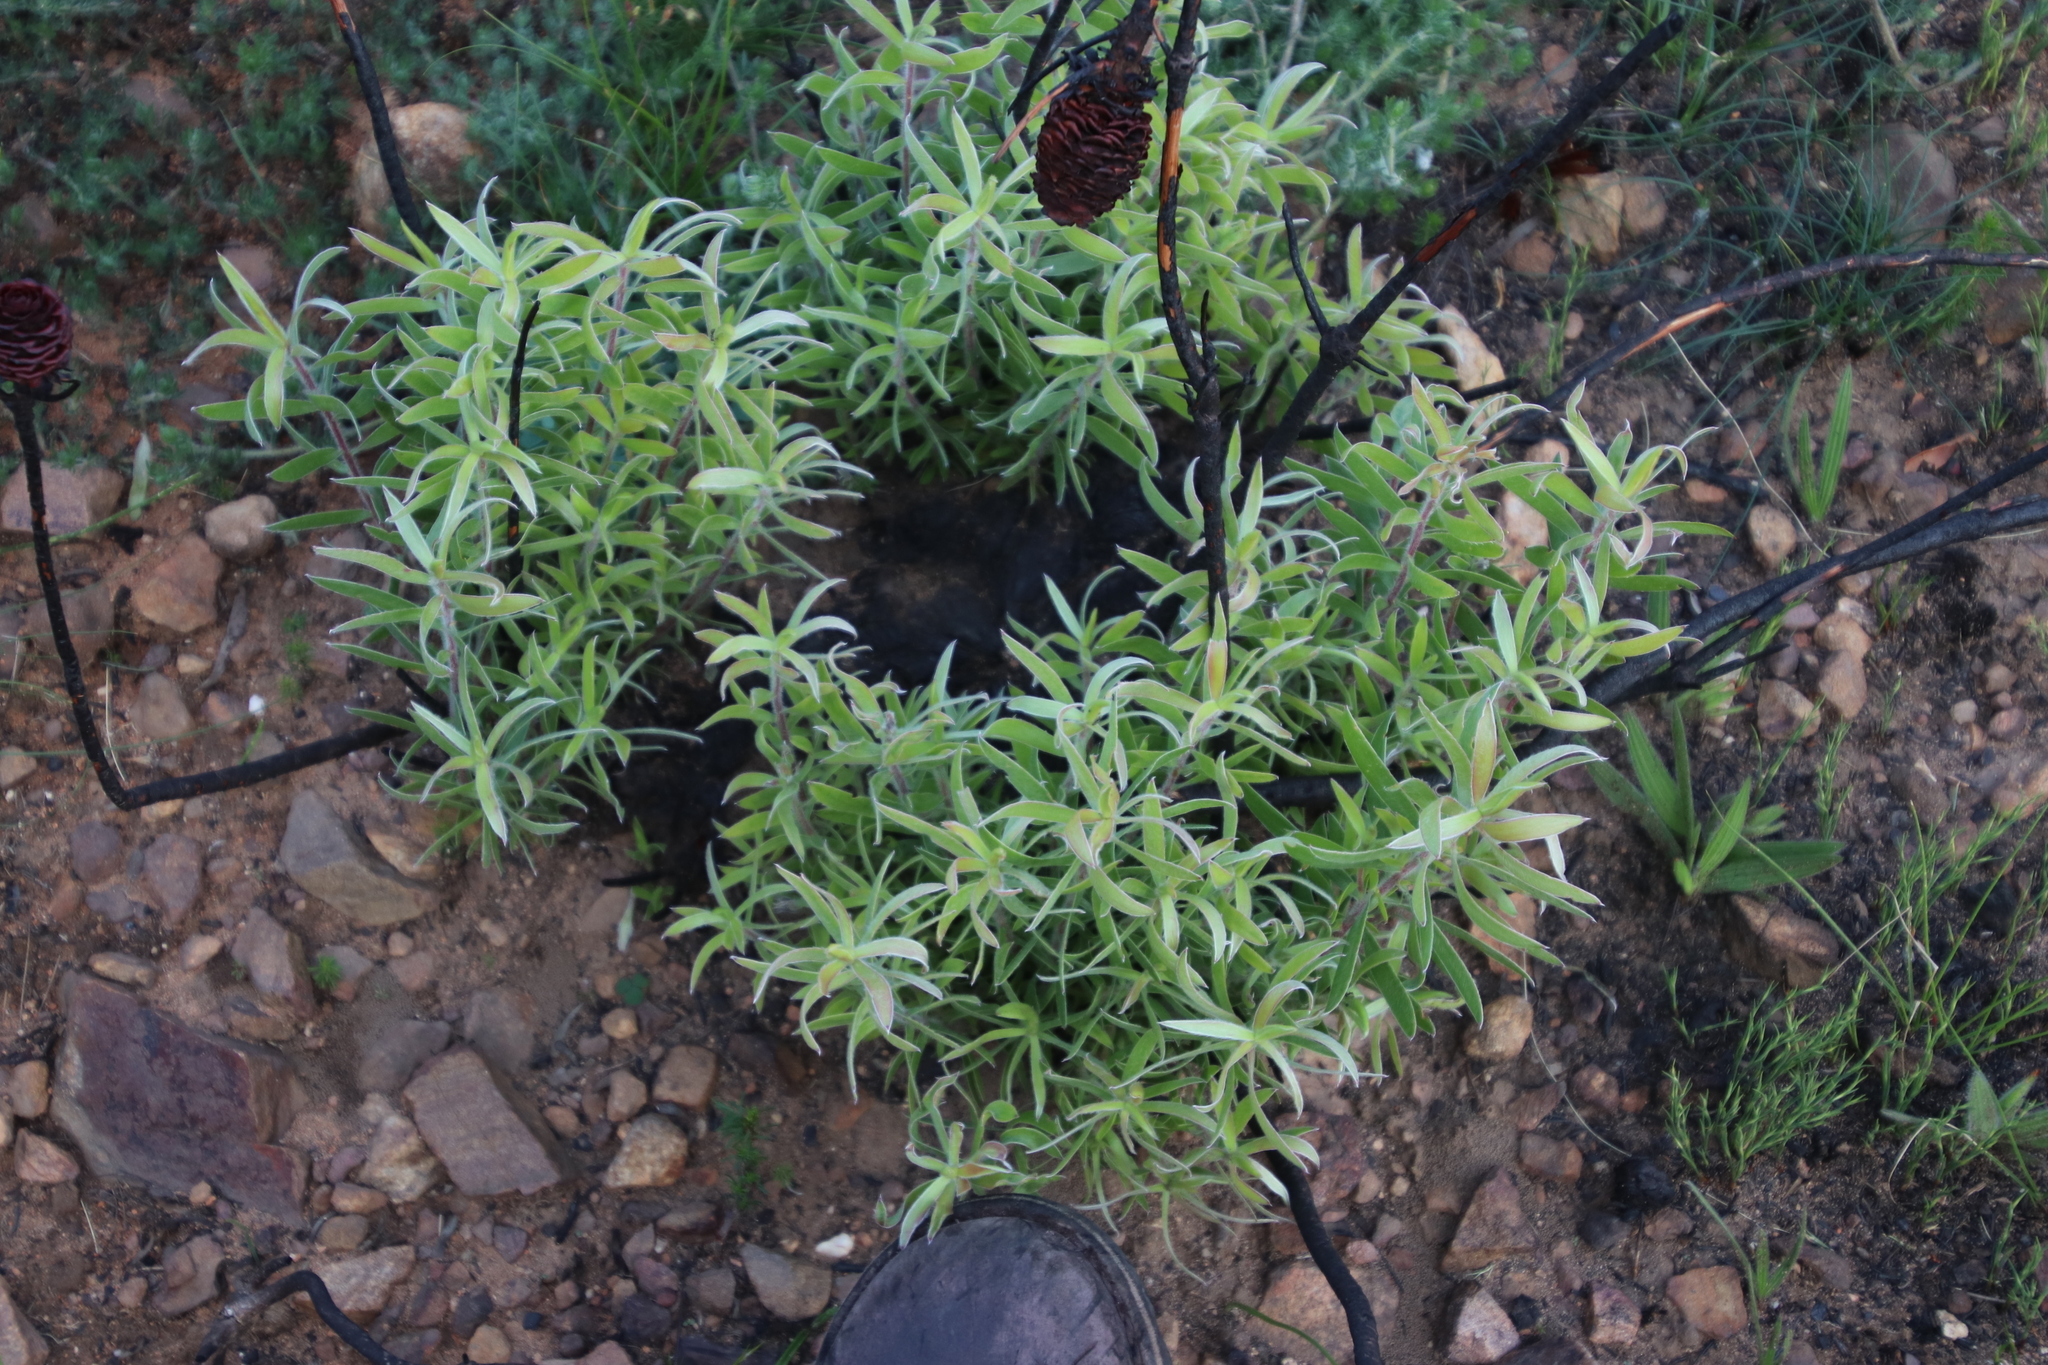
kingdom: Plantae
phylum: Tracheophyta
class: Magnoliopsida
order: Proteales
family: Proteaceae
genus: Leucadendron
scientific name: Leucadendron spissifolium
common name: Spear-leaf conebush
